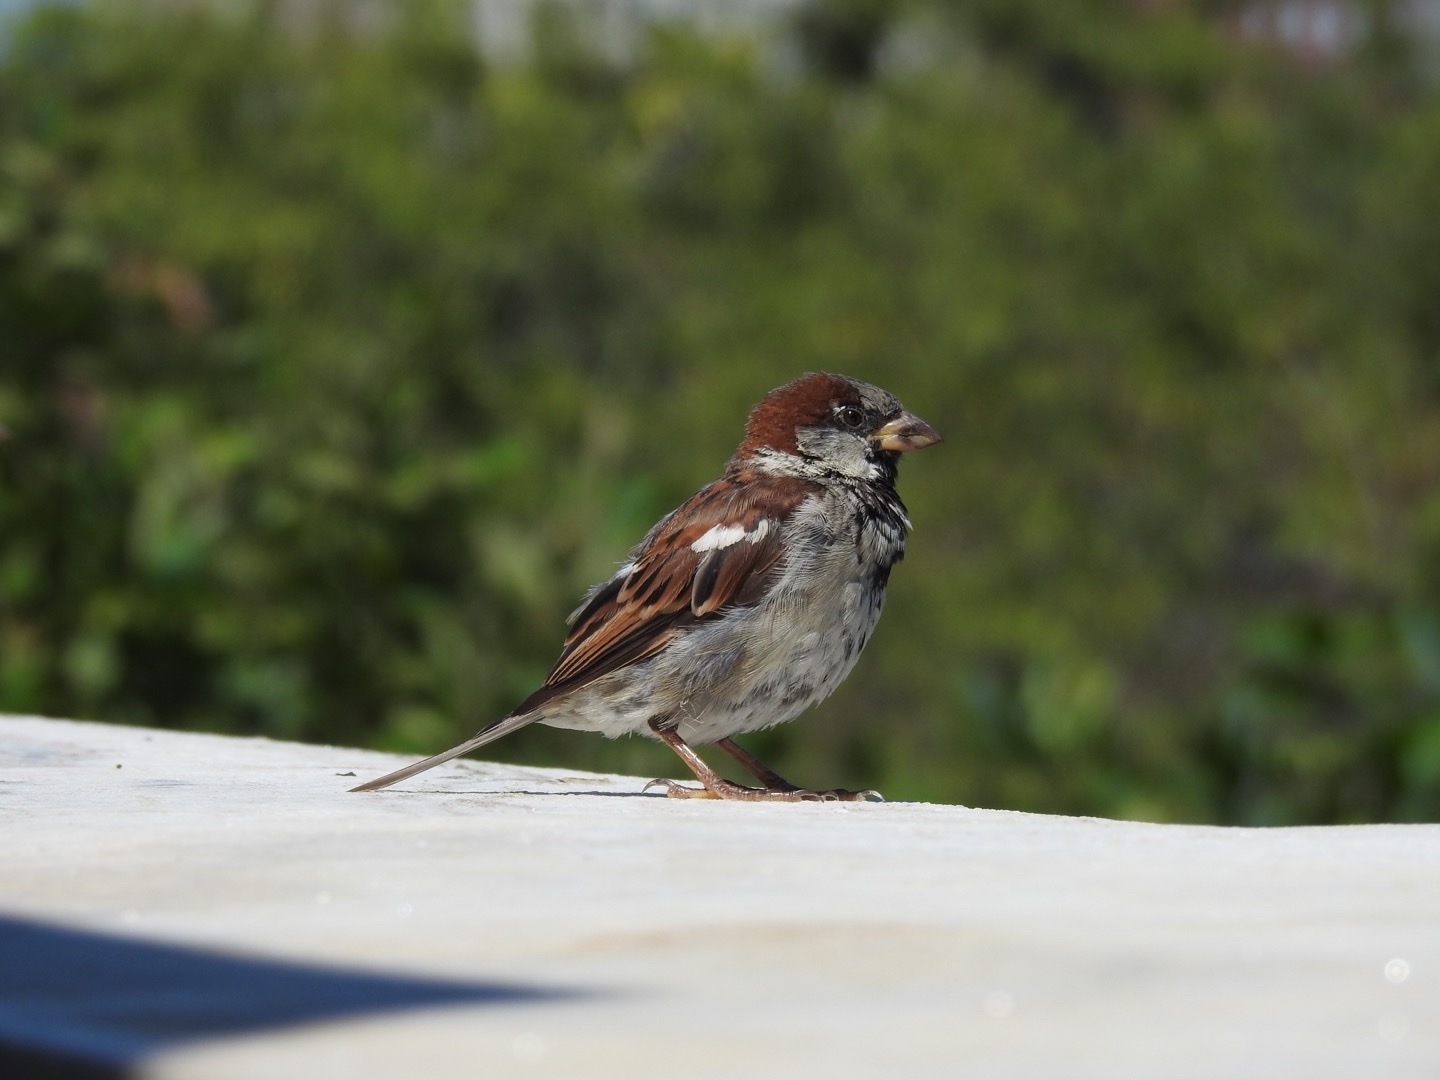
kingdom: Animalia
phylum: Chordata
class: Aves
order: Passeriformes
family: Passeridae
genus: Passer
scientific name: Passer domesticus
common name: House sparrow
